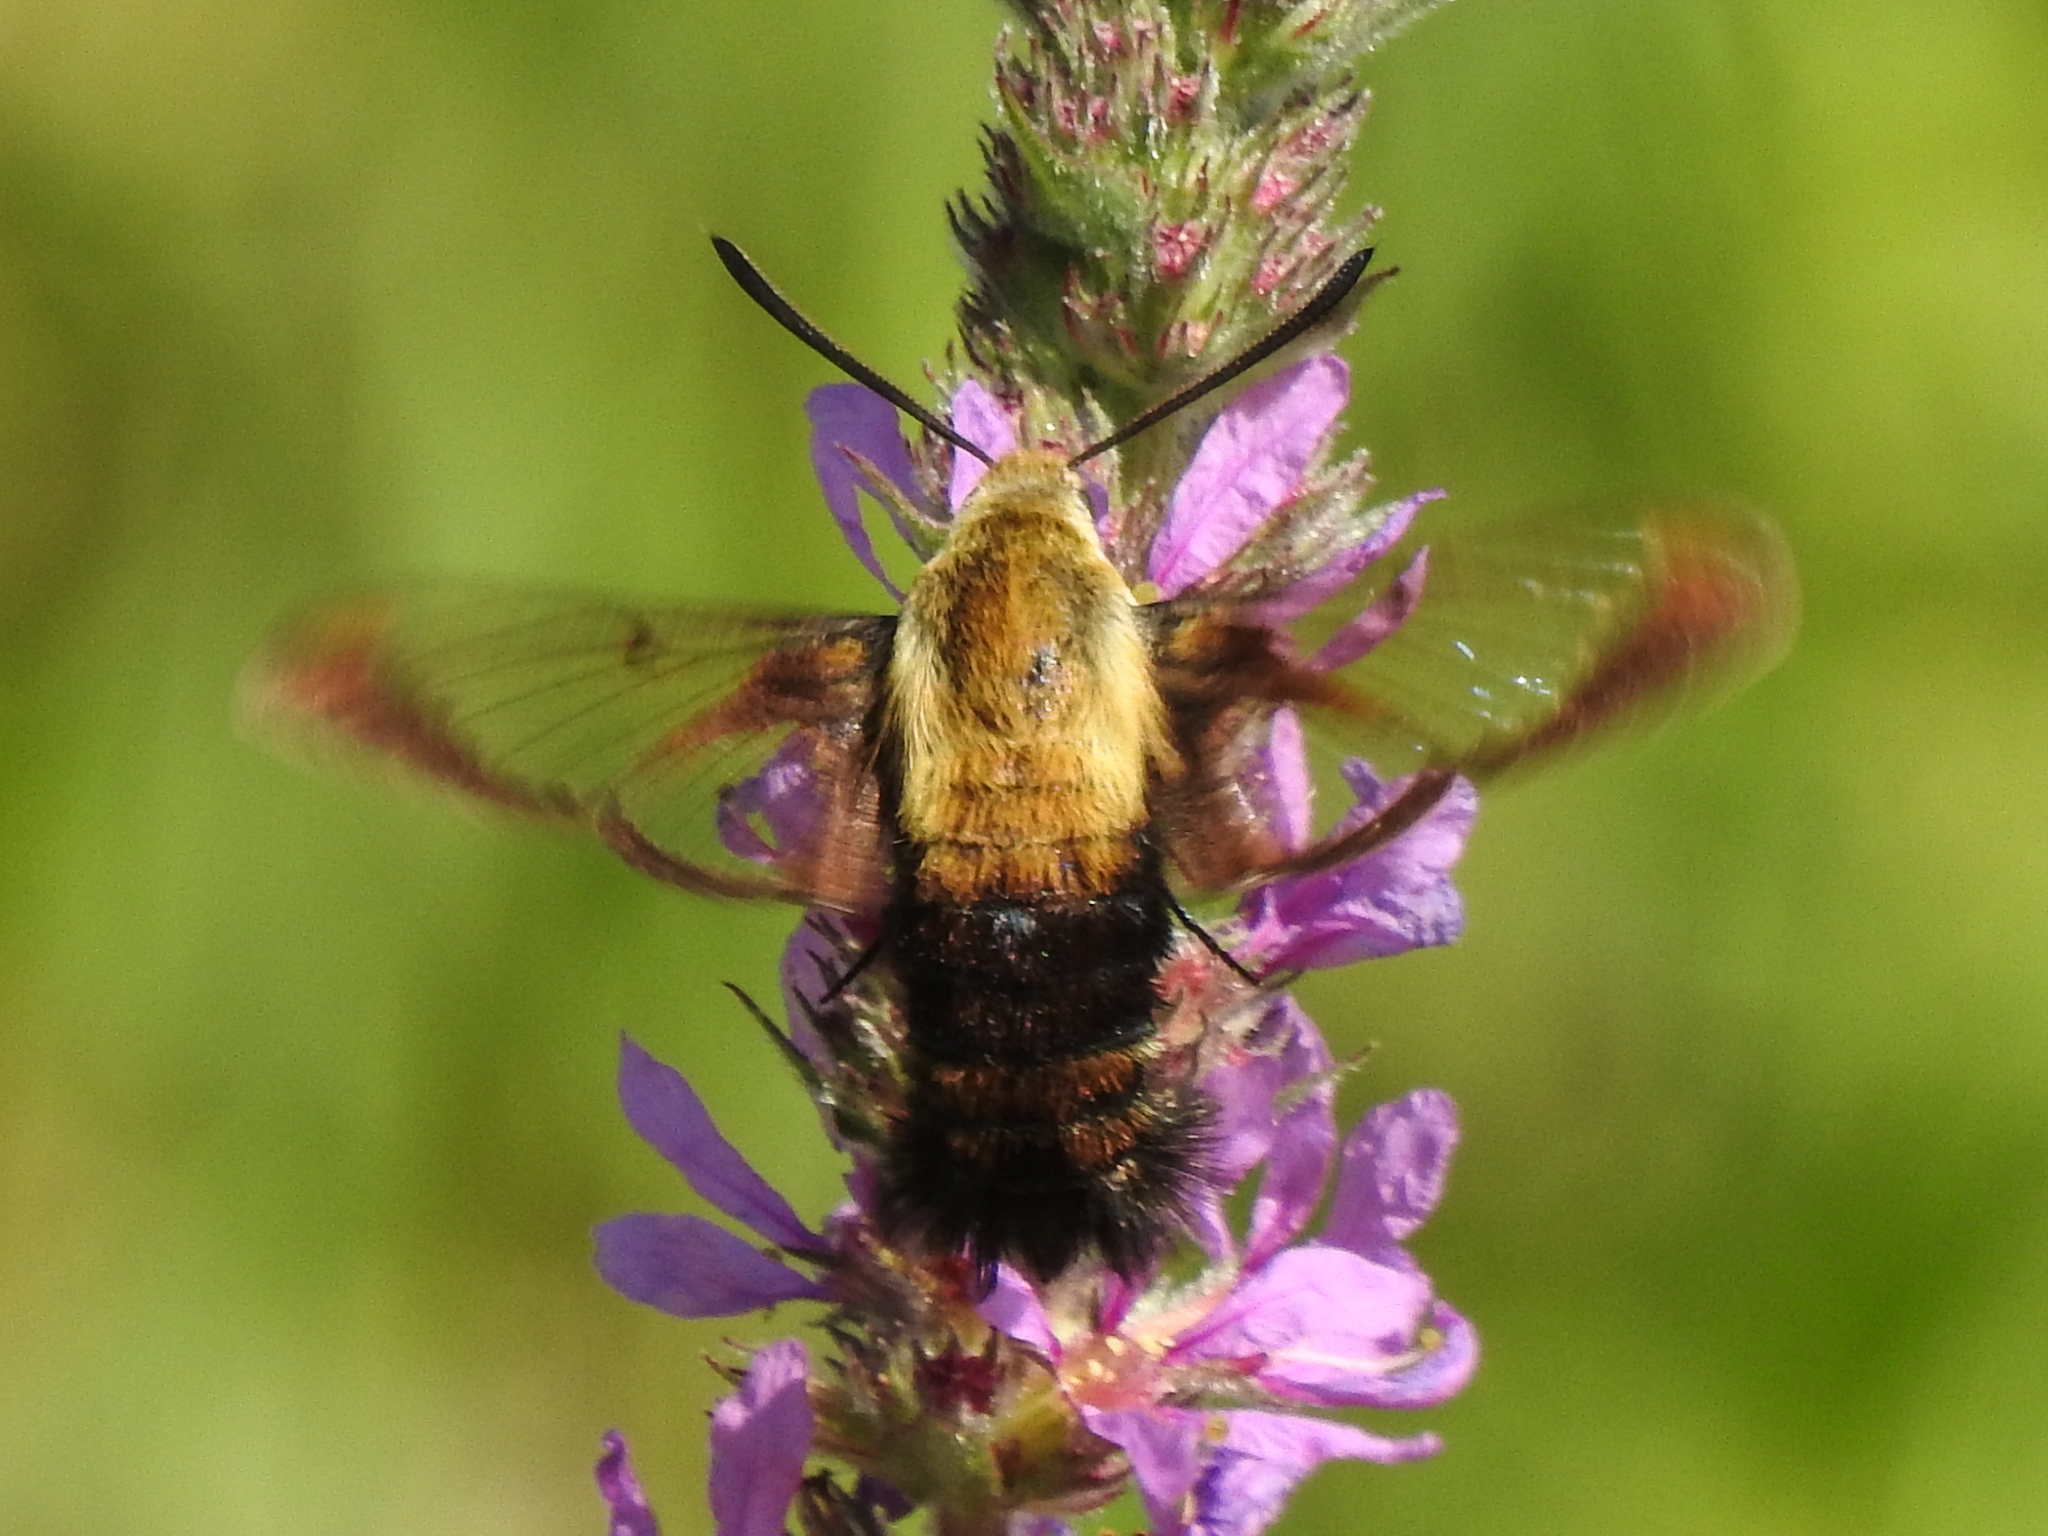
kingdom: Animalia
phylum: Arthropoda
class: Insecta
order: Lepidoptera
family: Sphingidae
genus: Hemaris
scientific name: Hemaris diffinis
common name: Bumblebee moth
